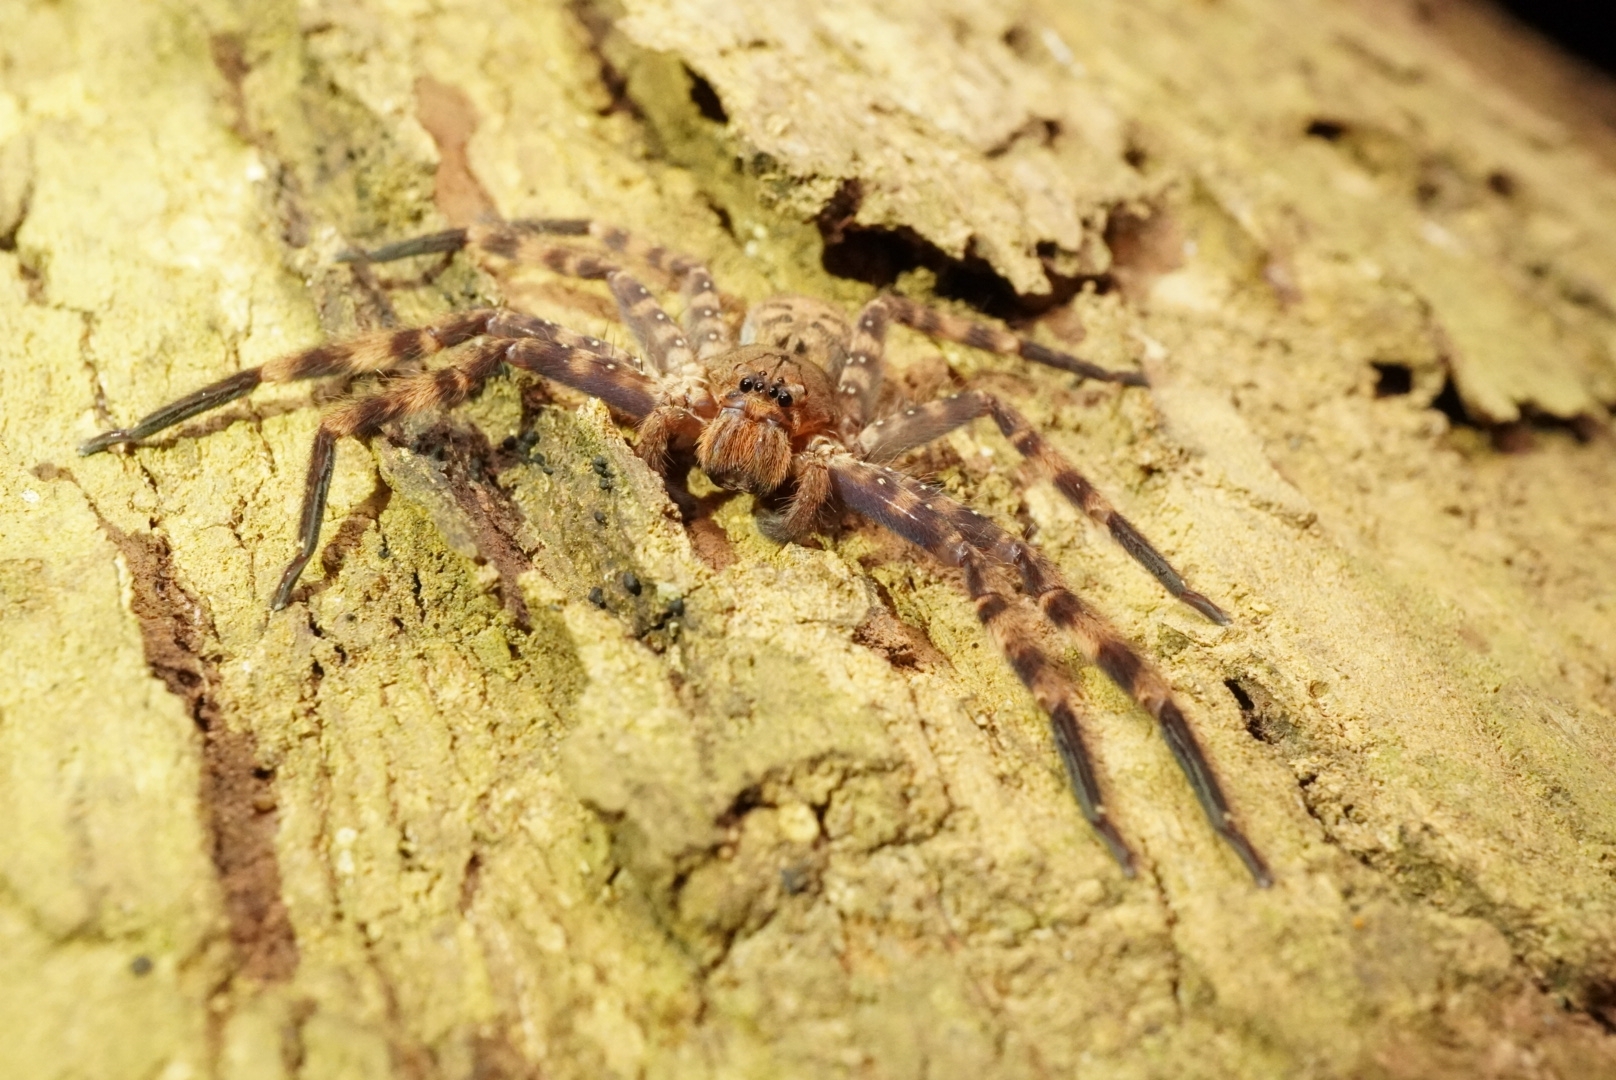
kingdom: Animalia
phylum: Arthropoda
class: Arachnida
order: Araneae
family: Sparassidae
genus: Heteropoda
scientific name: Heteropoda lunula
